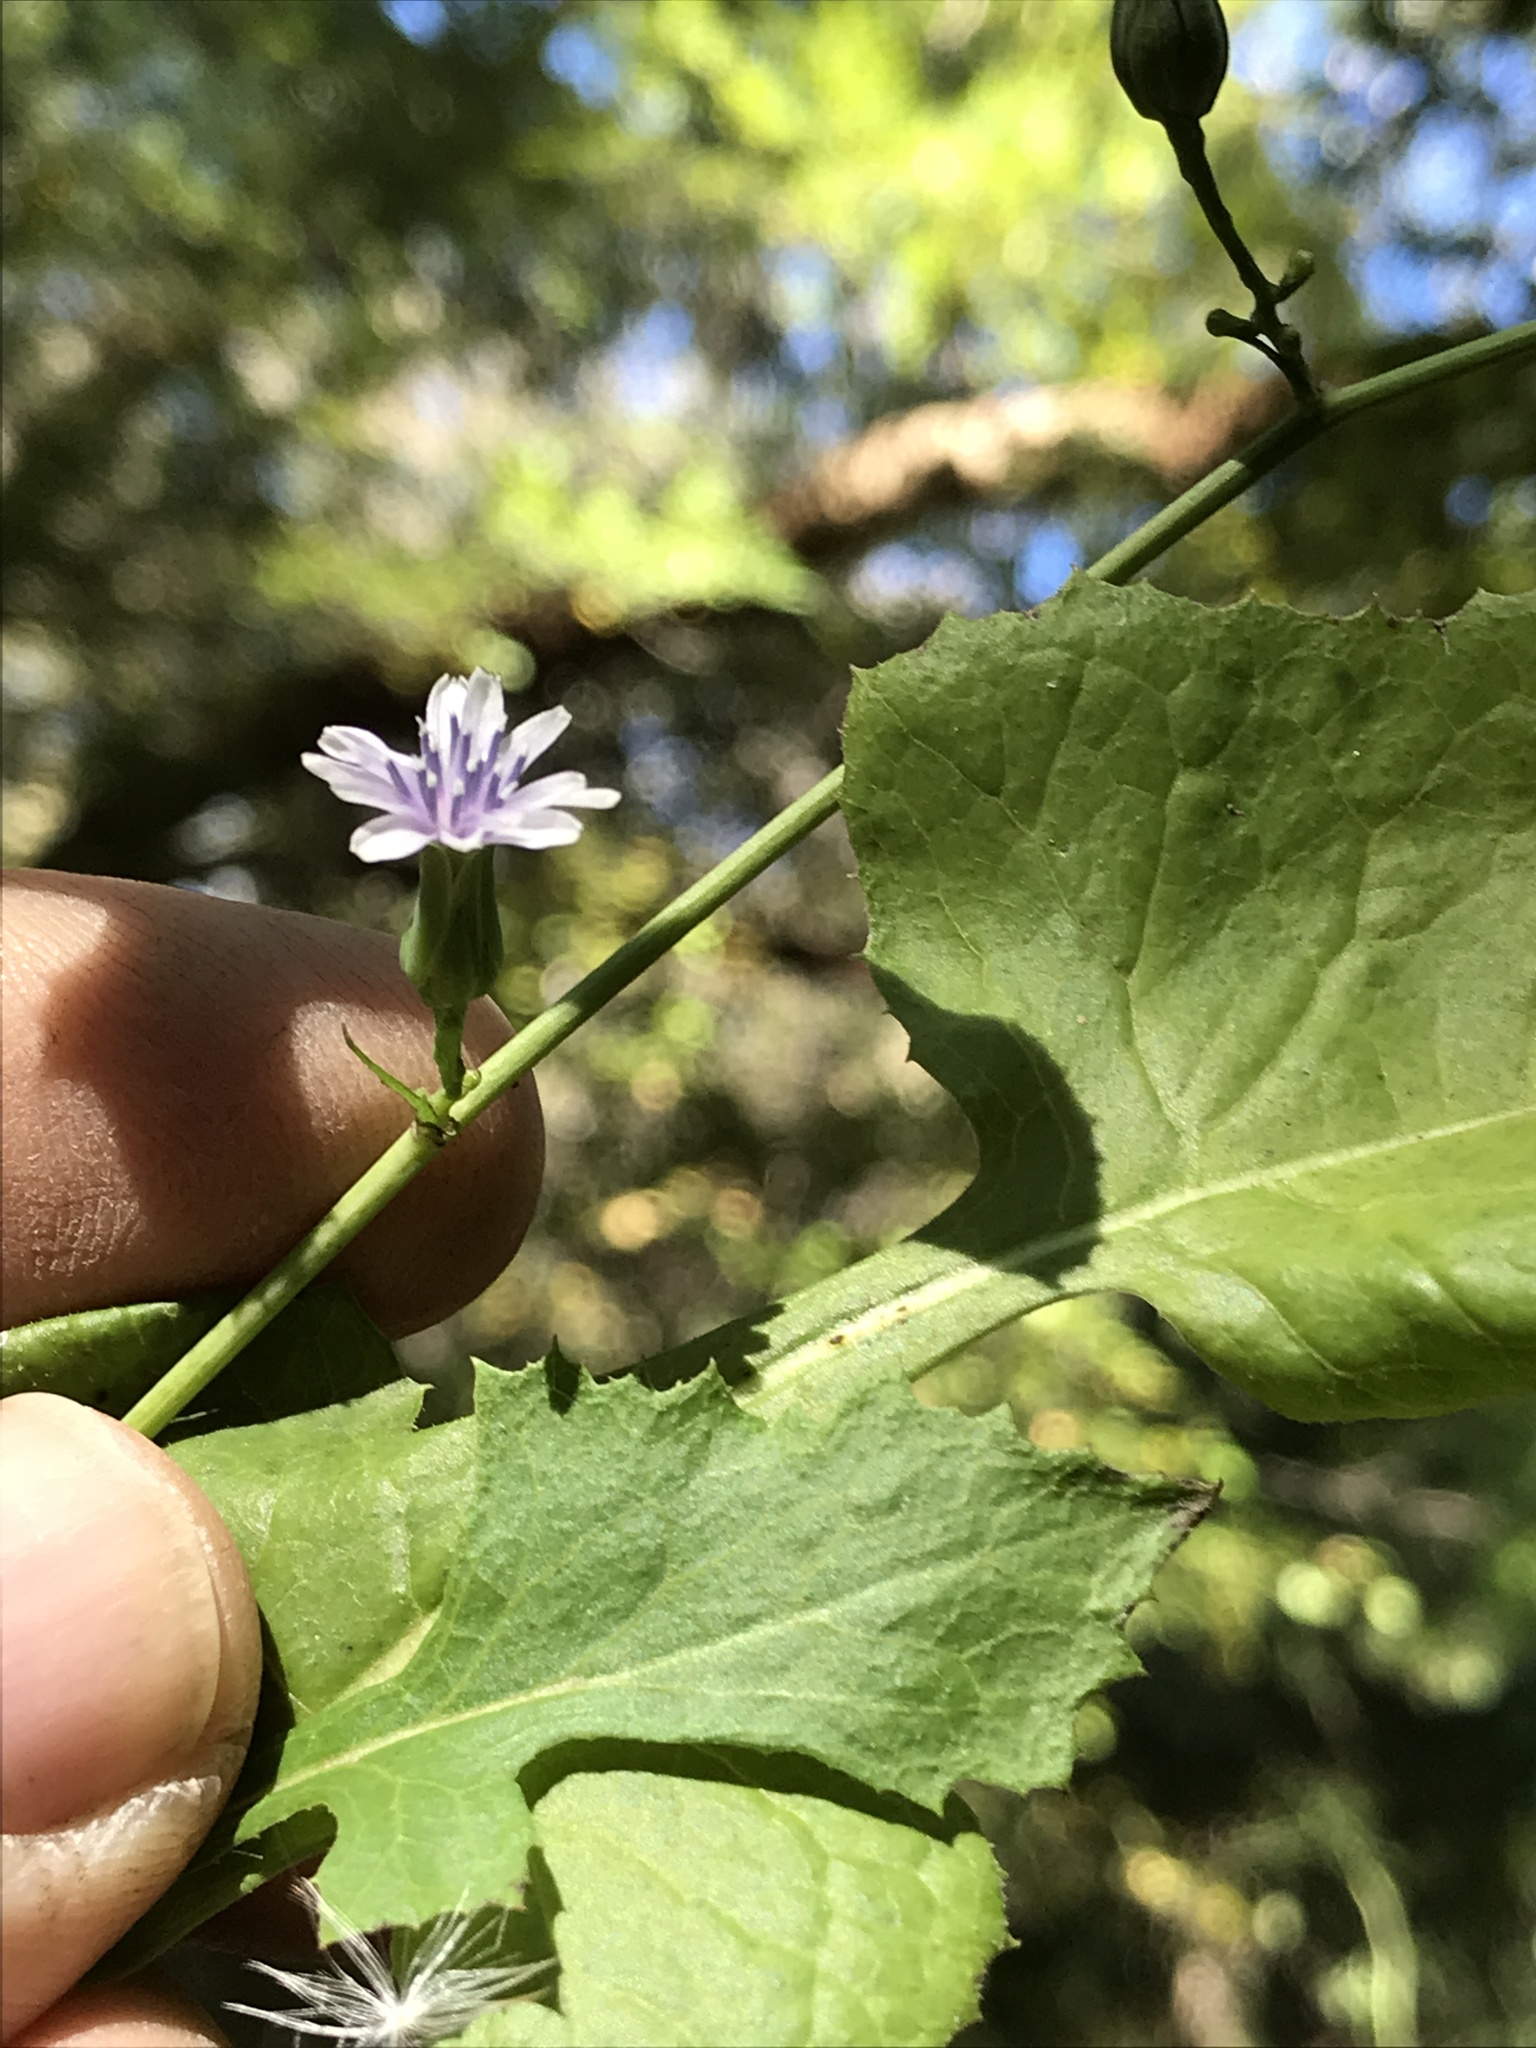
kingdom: Plantae
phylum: Tracheophyta
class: Magnoliopsida
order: Asterales
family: Asteraceae
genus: Lactuca
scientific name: Lactuca floridana
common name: Woodland lettuce
